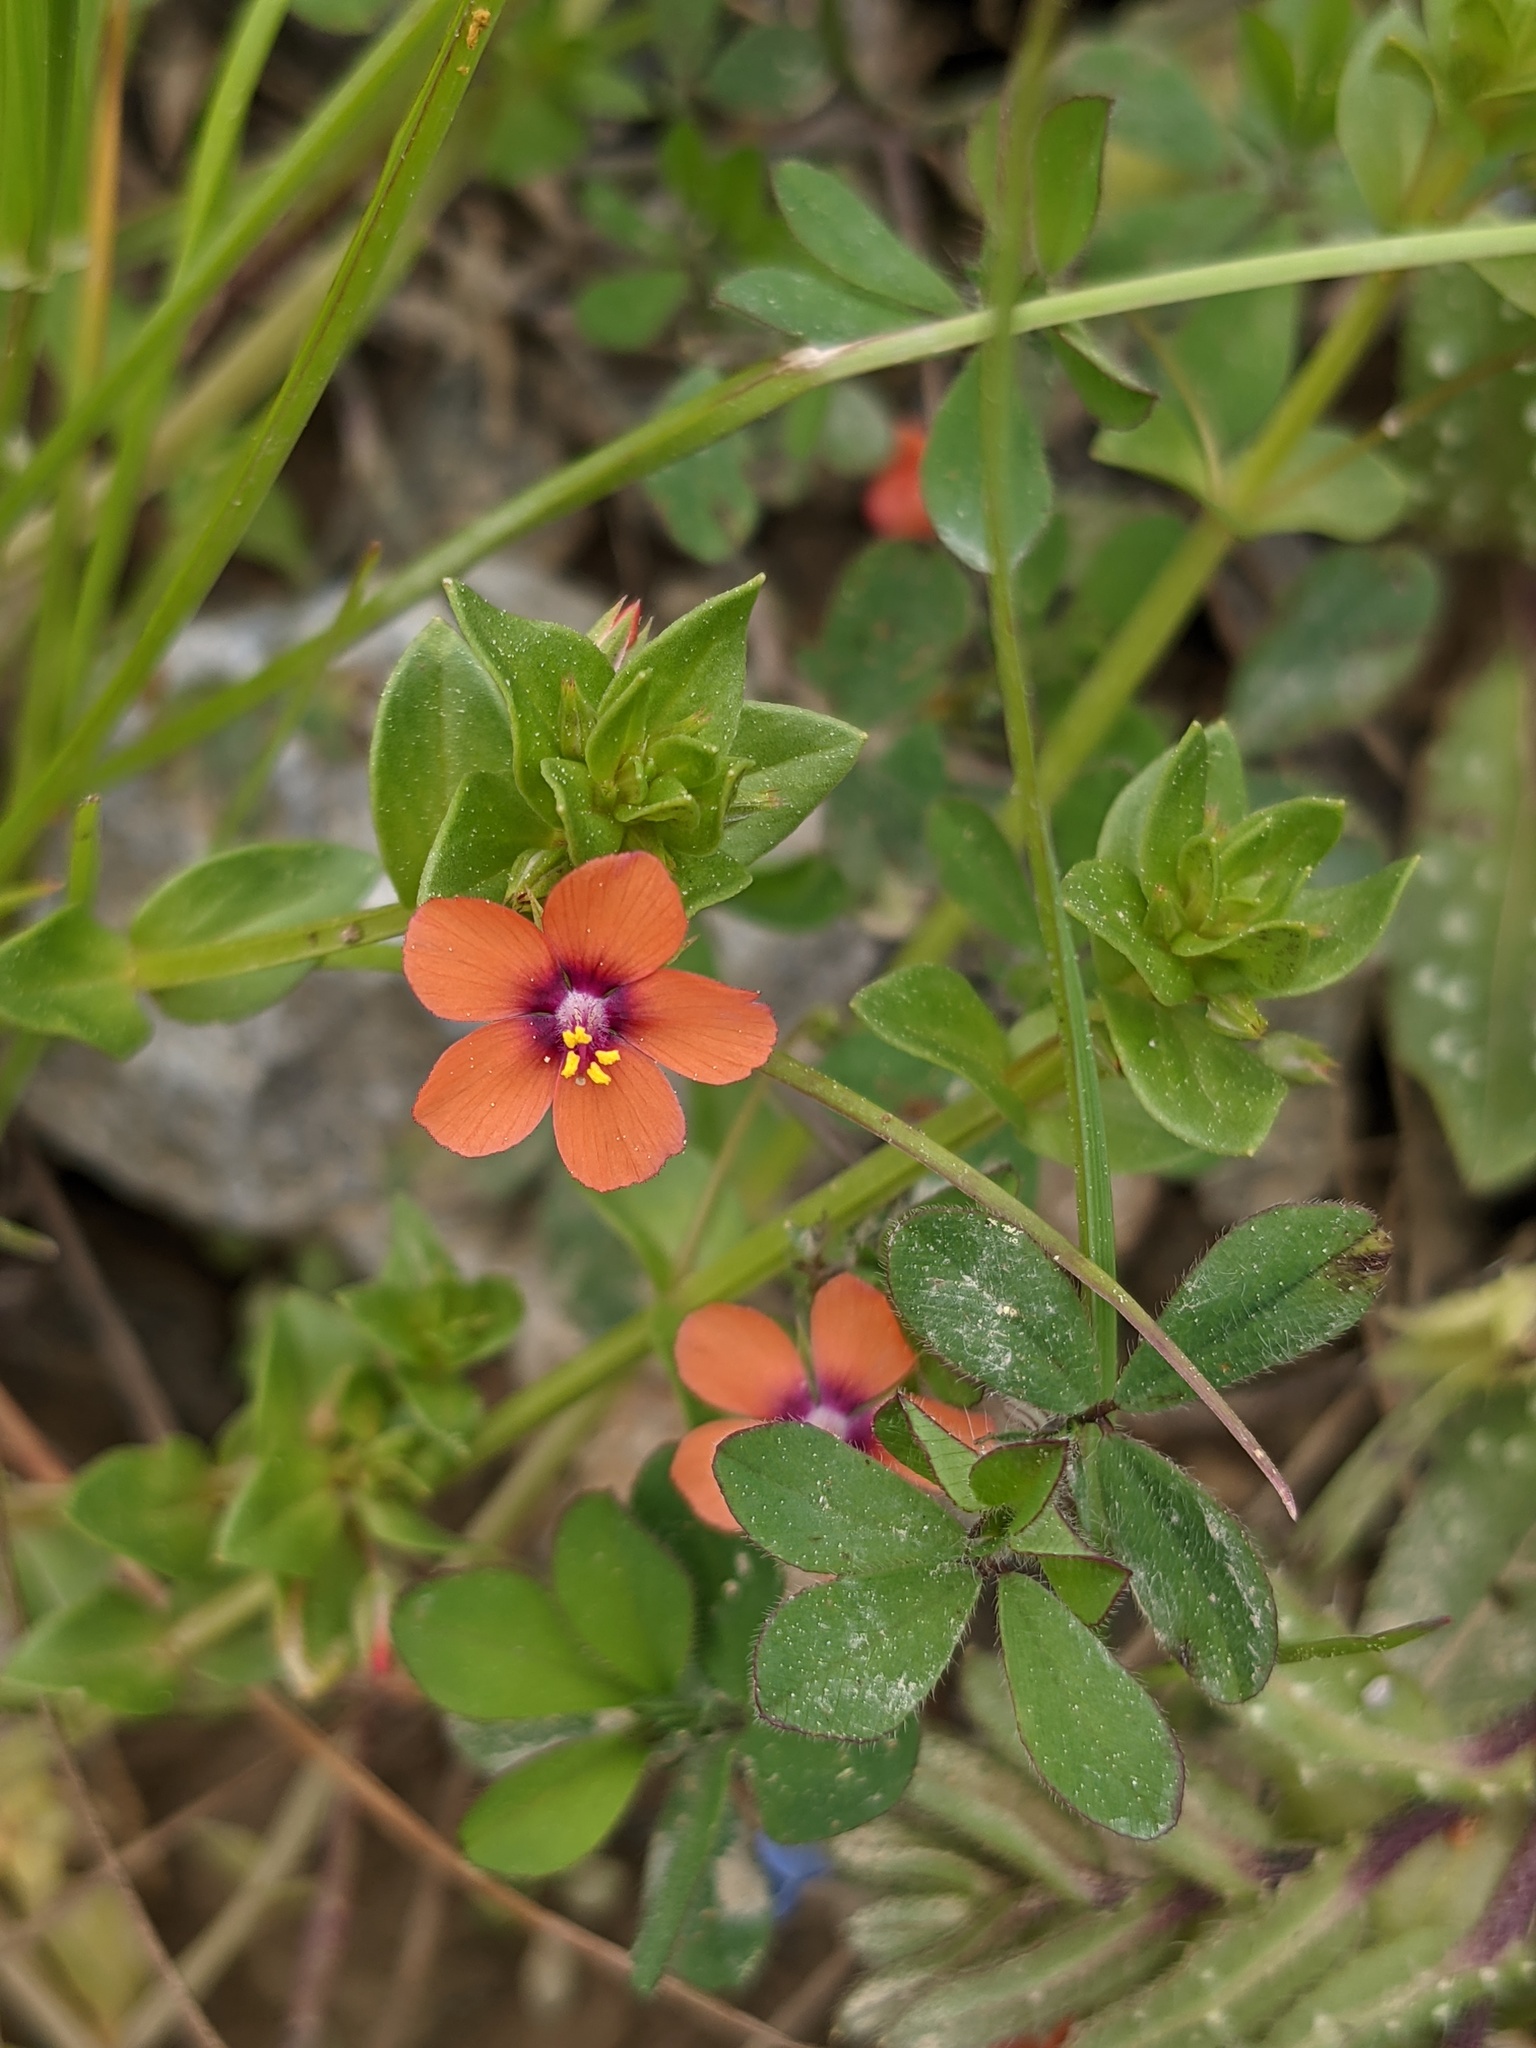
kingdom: Plantae
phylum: Tracheophyta
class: Magnoliopsida
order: Ericales
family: Primulaceae
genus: Lysimachia
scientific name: Lysimachia arvensis
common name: Scarlet pimpernel
